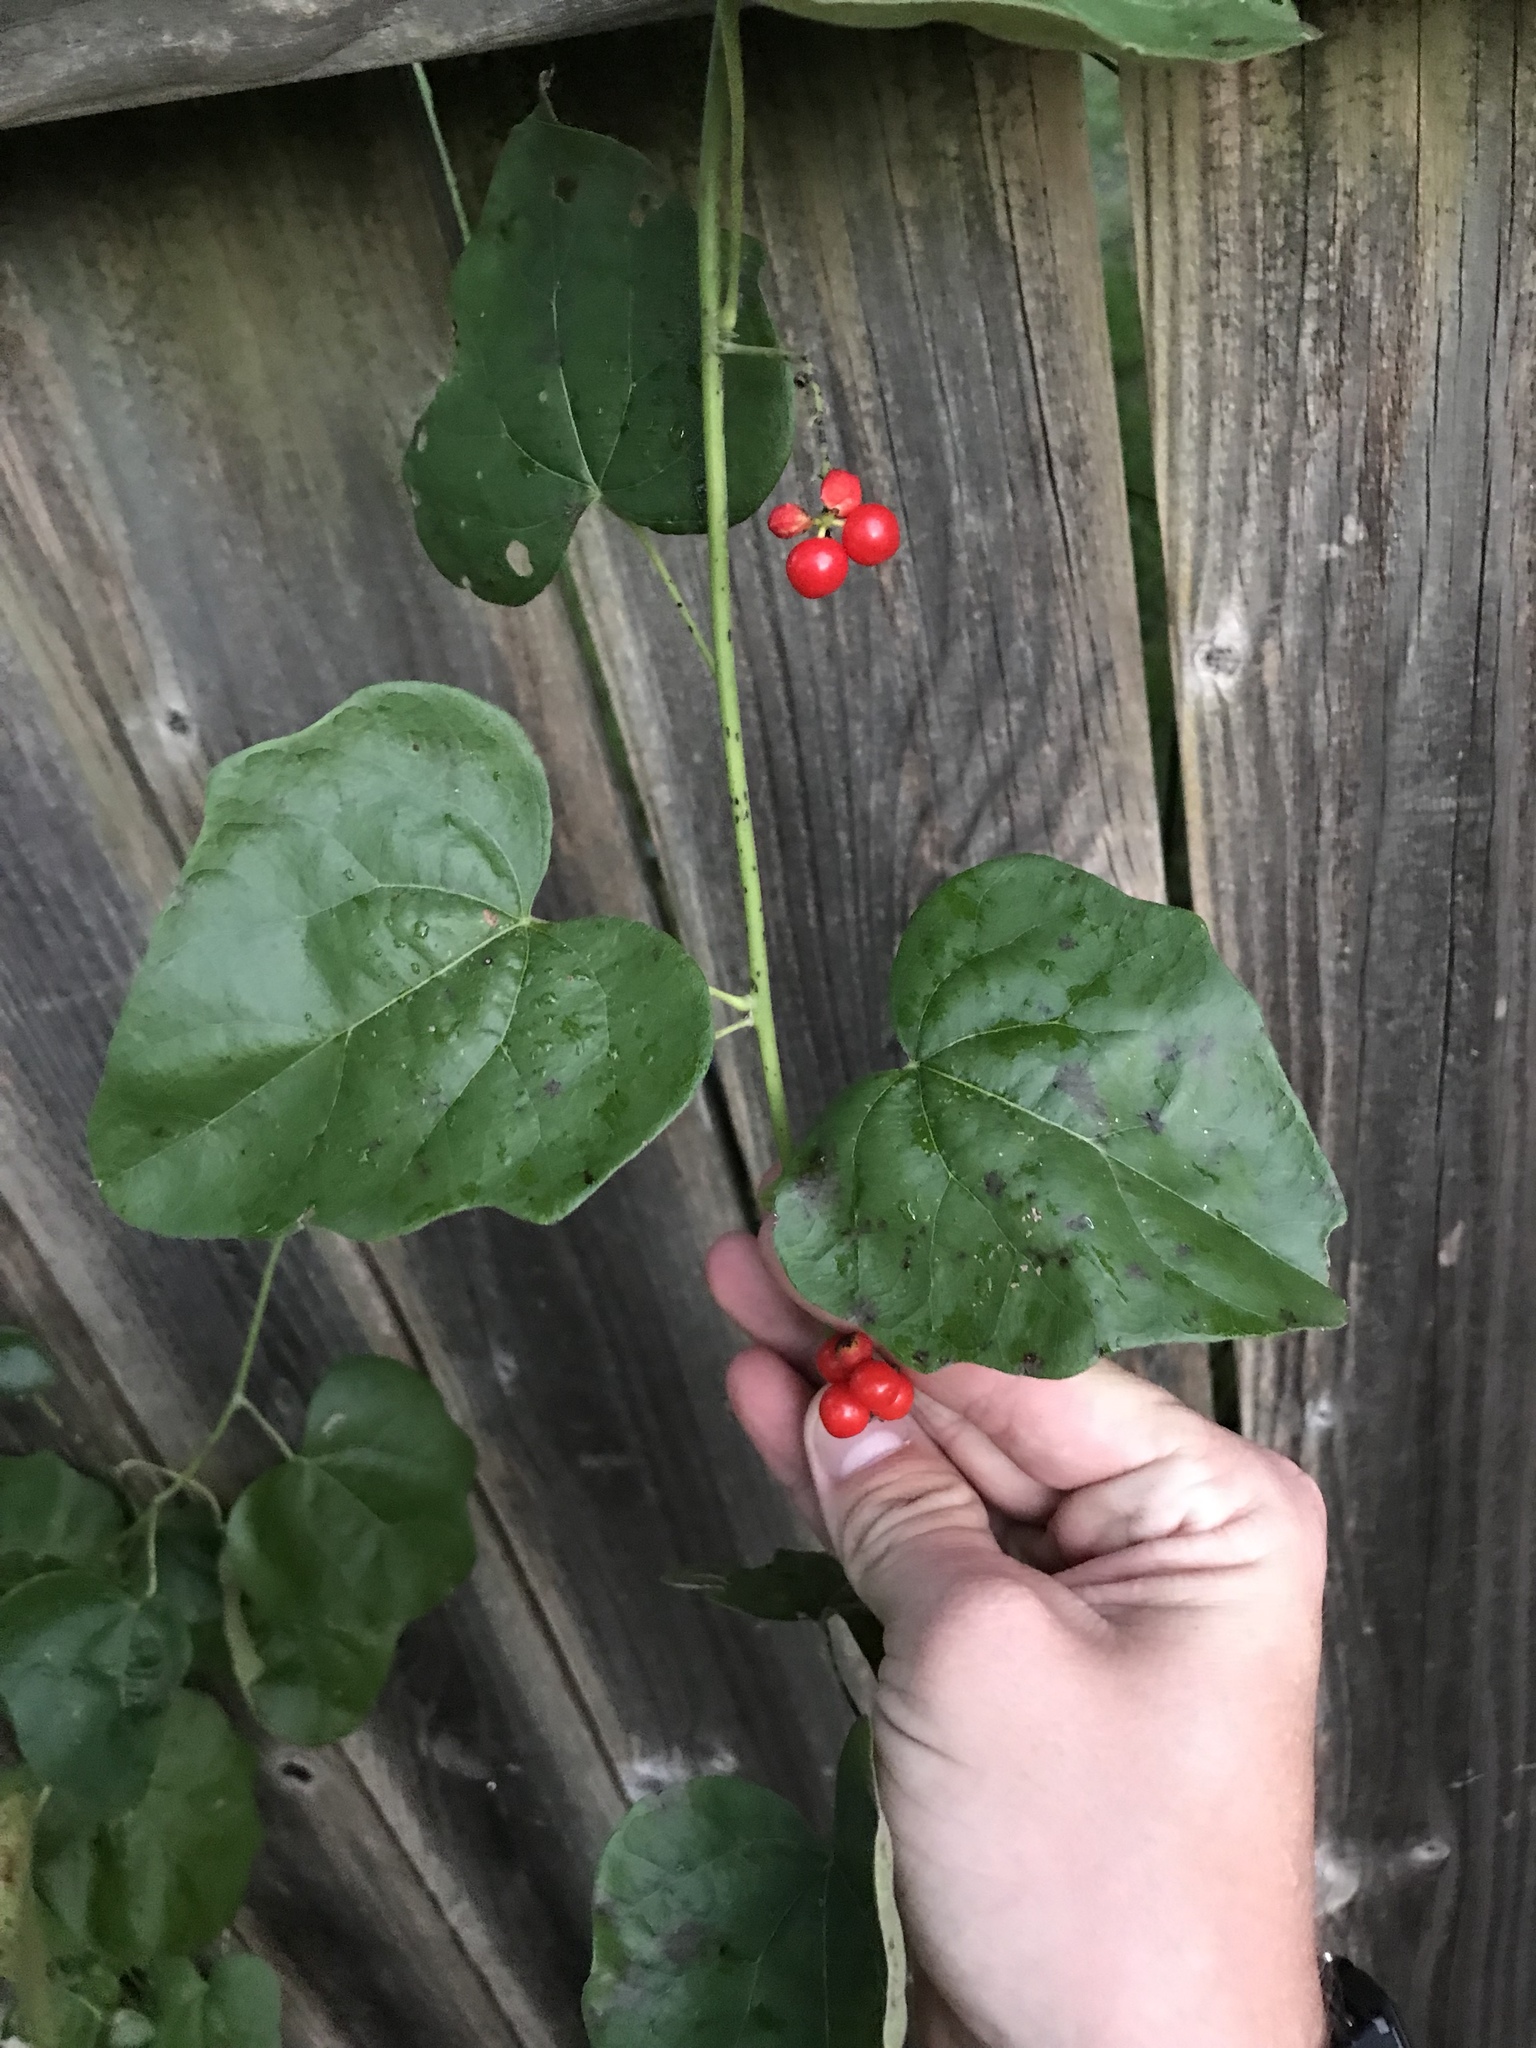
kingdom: Plantae
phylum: Tracheophyta
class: Magnoliopsida
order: Ranunculales
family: Menispermaceae
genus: Cocculus
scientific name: Cocculus carolinus
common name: Carolina moonseed
